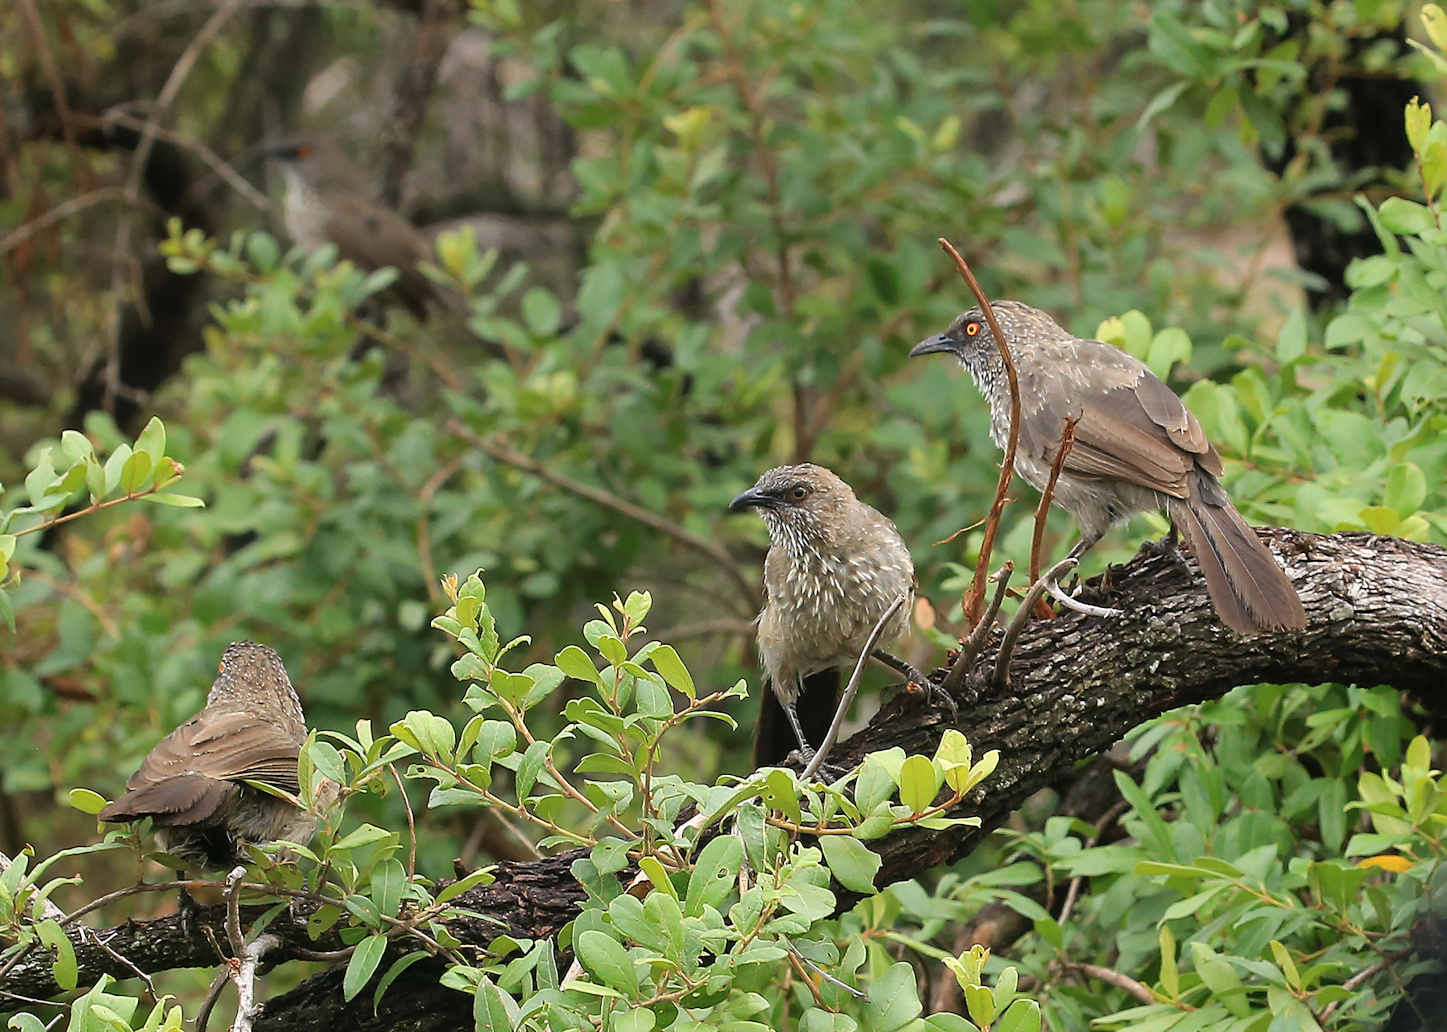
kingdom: Animalia
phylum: Chordata
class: Aves
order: Passeriformes
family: Leiothrichidae
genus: Turdoides
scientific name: Turdoides jardineii
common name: Arrow-marked babbler
